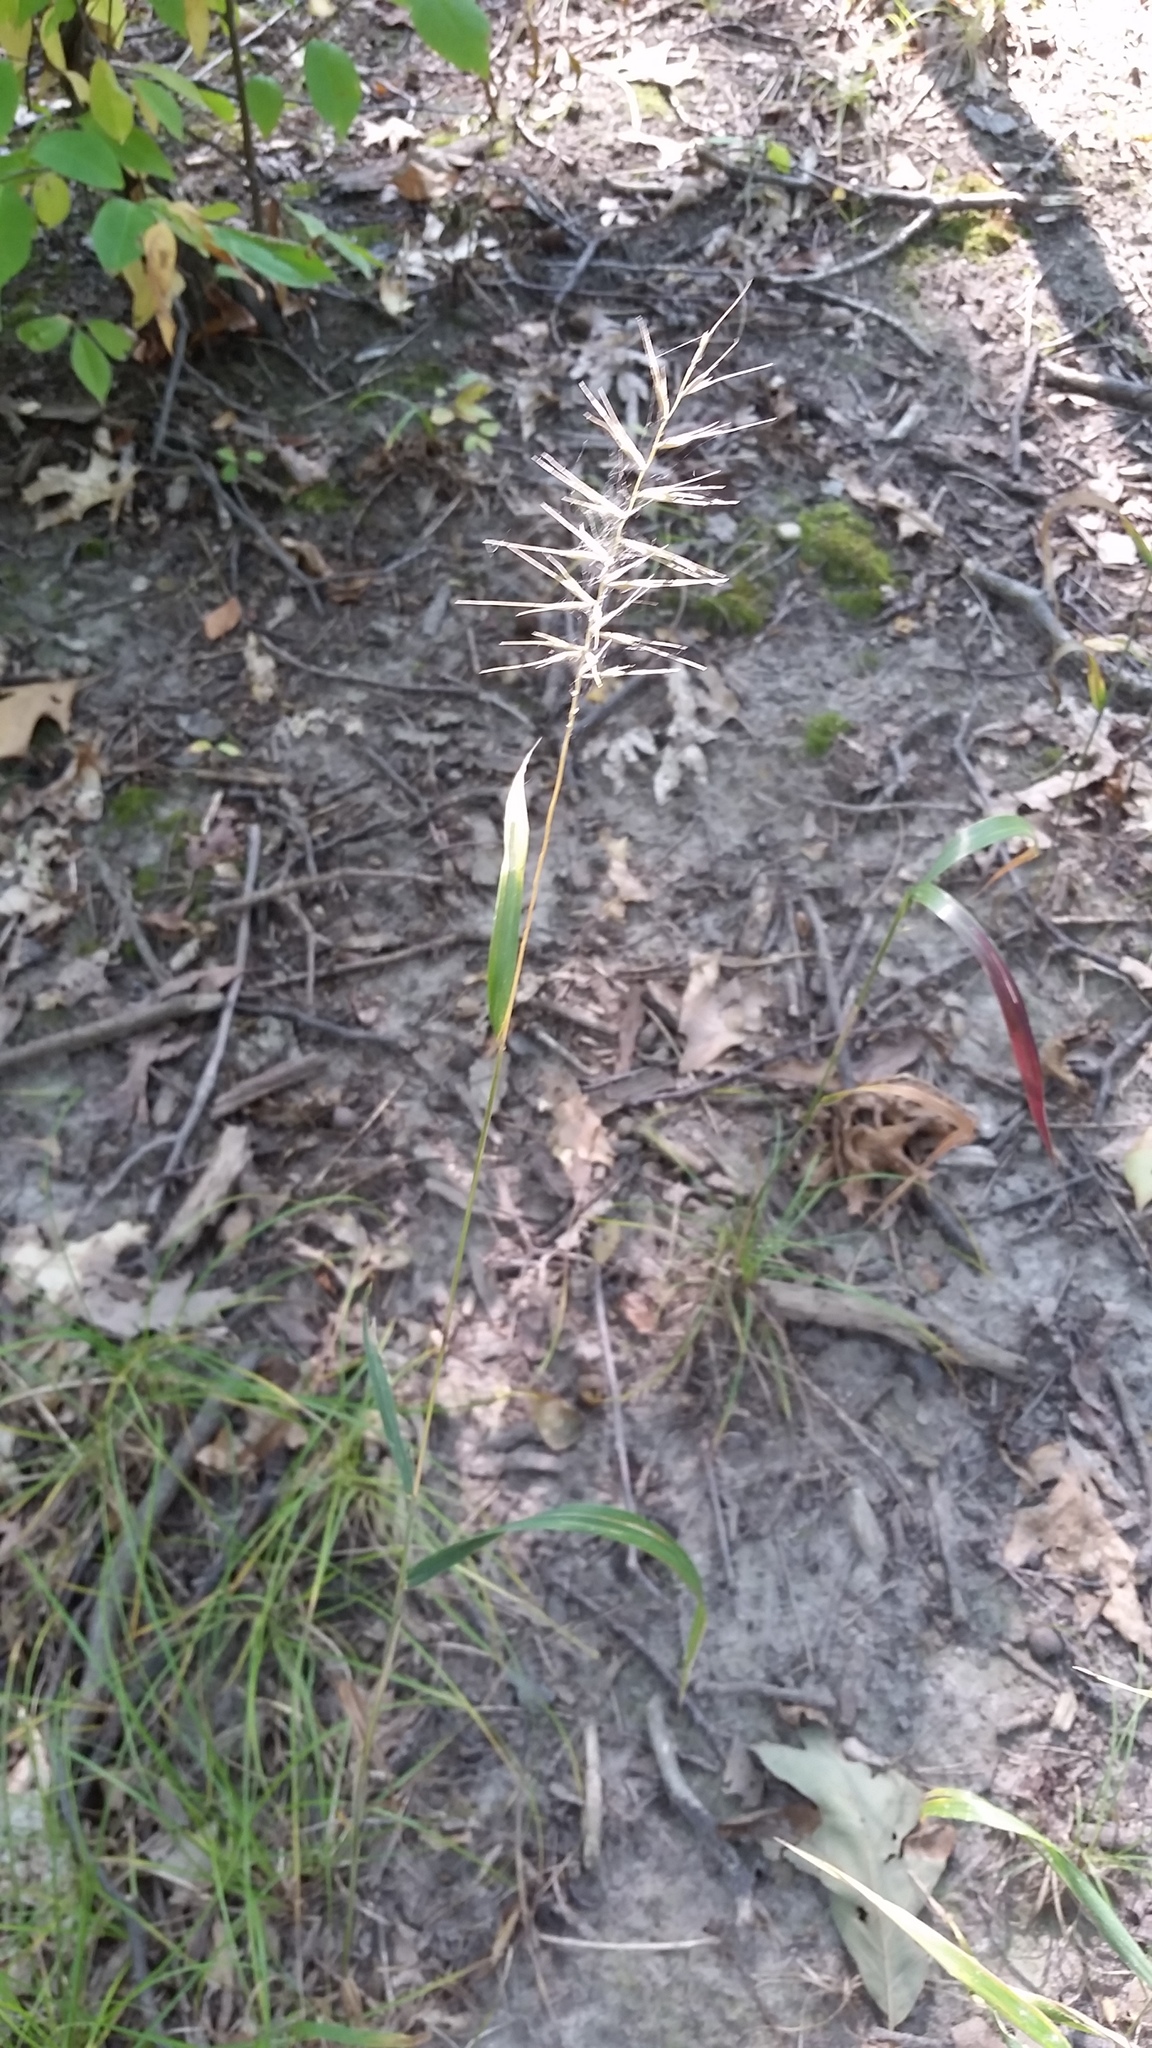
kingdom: Plantae
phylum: Tracheophyta
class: Liliopsida
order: Poales
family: Poaceae
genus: Elymus
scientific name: Elymus hystrix
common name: Bottlebrush grass
